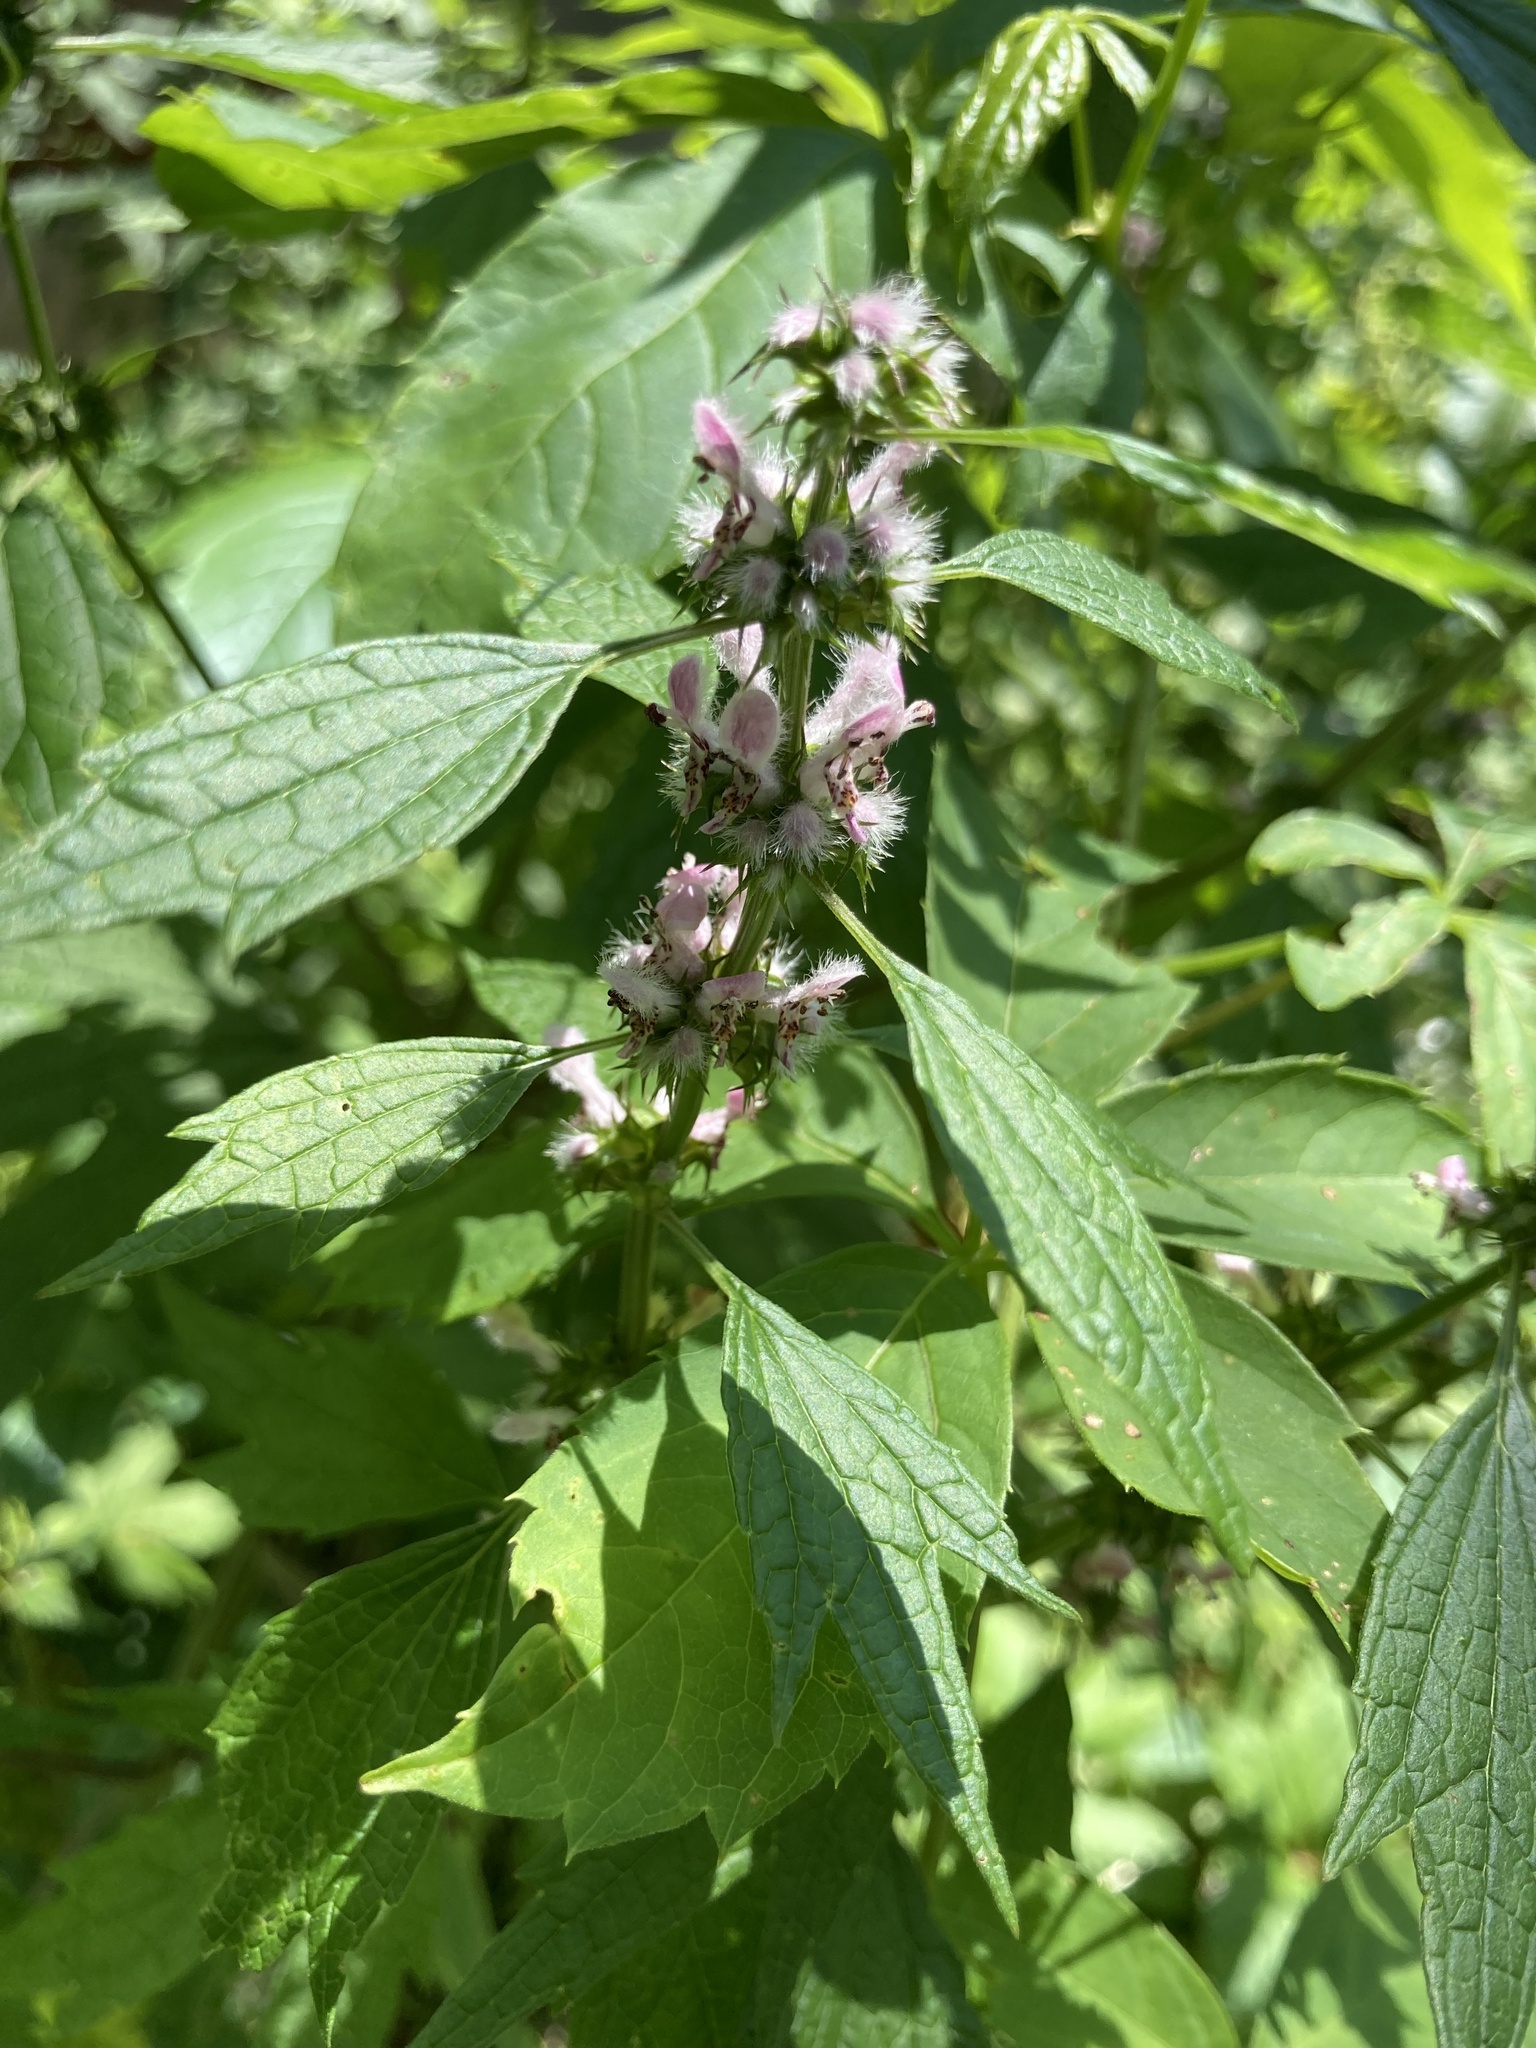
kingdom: Plantae
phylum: Tracheophyta
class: Magnoliopsida
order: Lamiales
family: Lamiaceae
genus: Leonurus
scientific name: Leonurus cardiaca
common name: Motherwort
